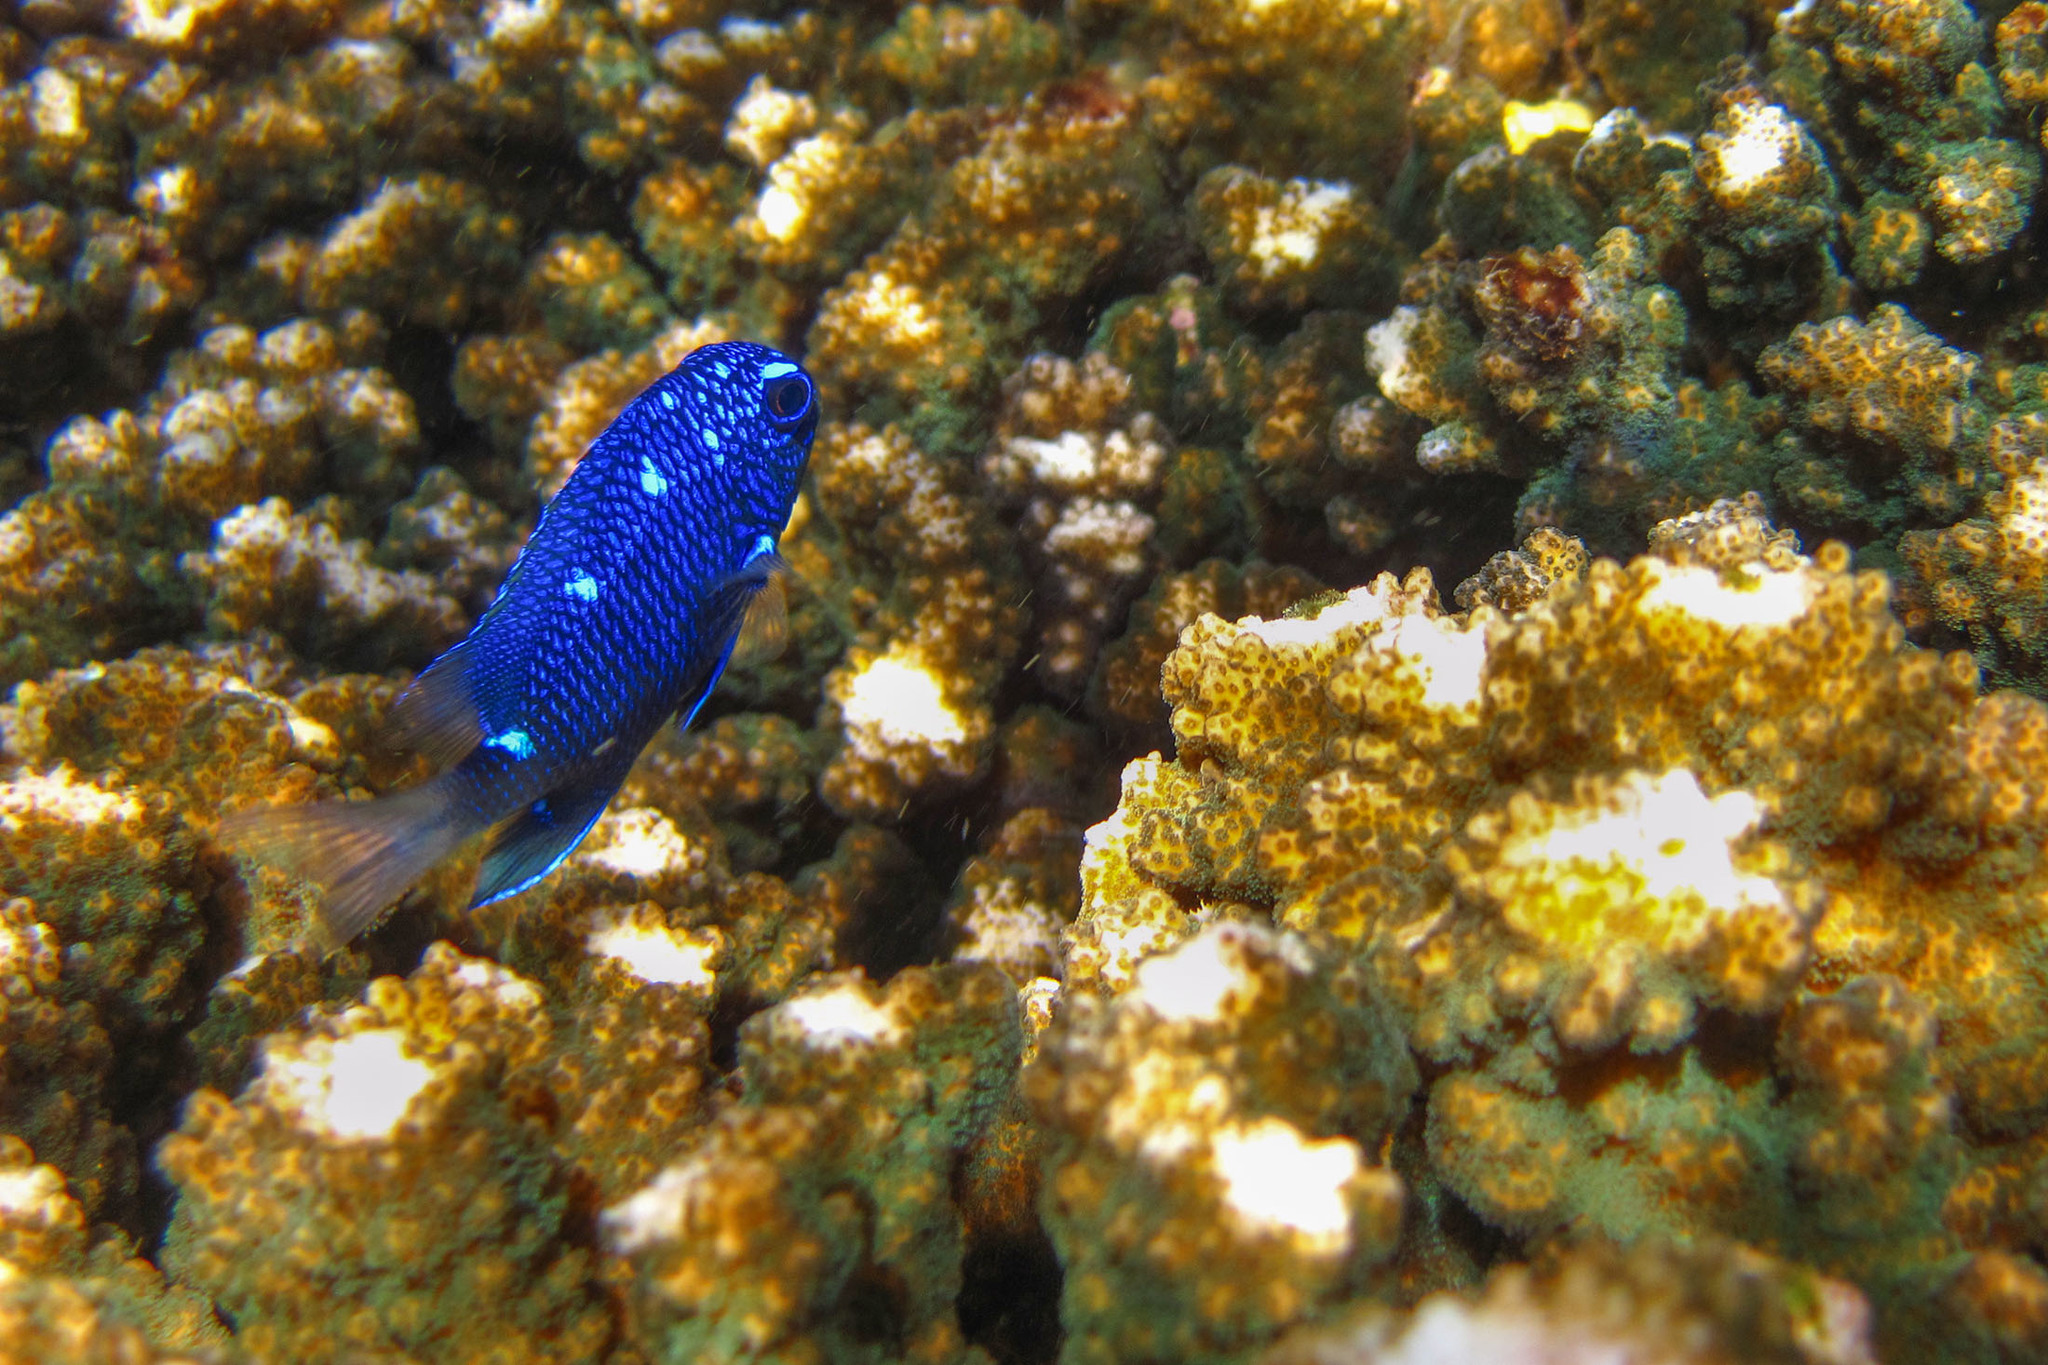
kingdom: Animalia
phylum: Chordata
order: Perciformes
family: Pomacentridae
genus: Microspathodon
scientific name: Microspathodon dorsalis
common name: Giant damselfish
